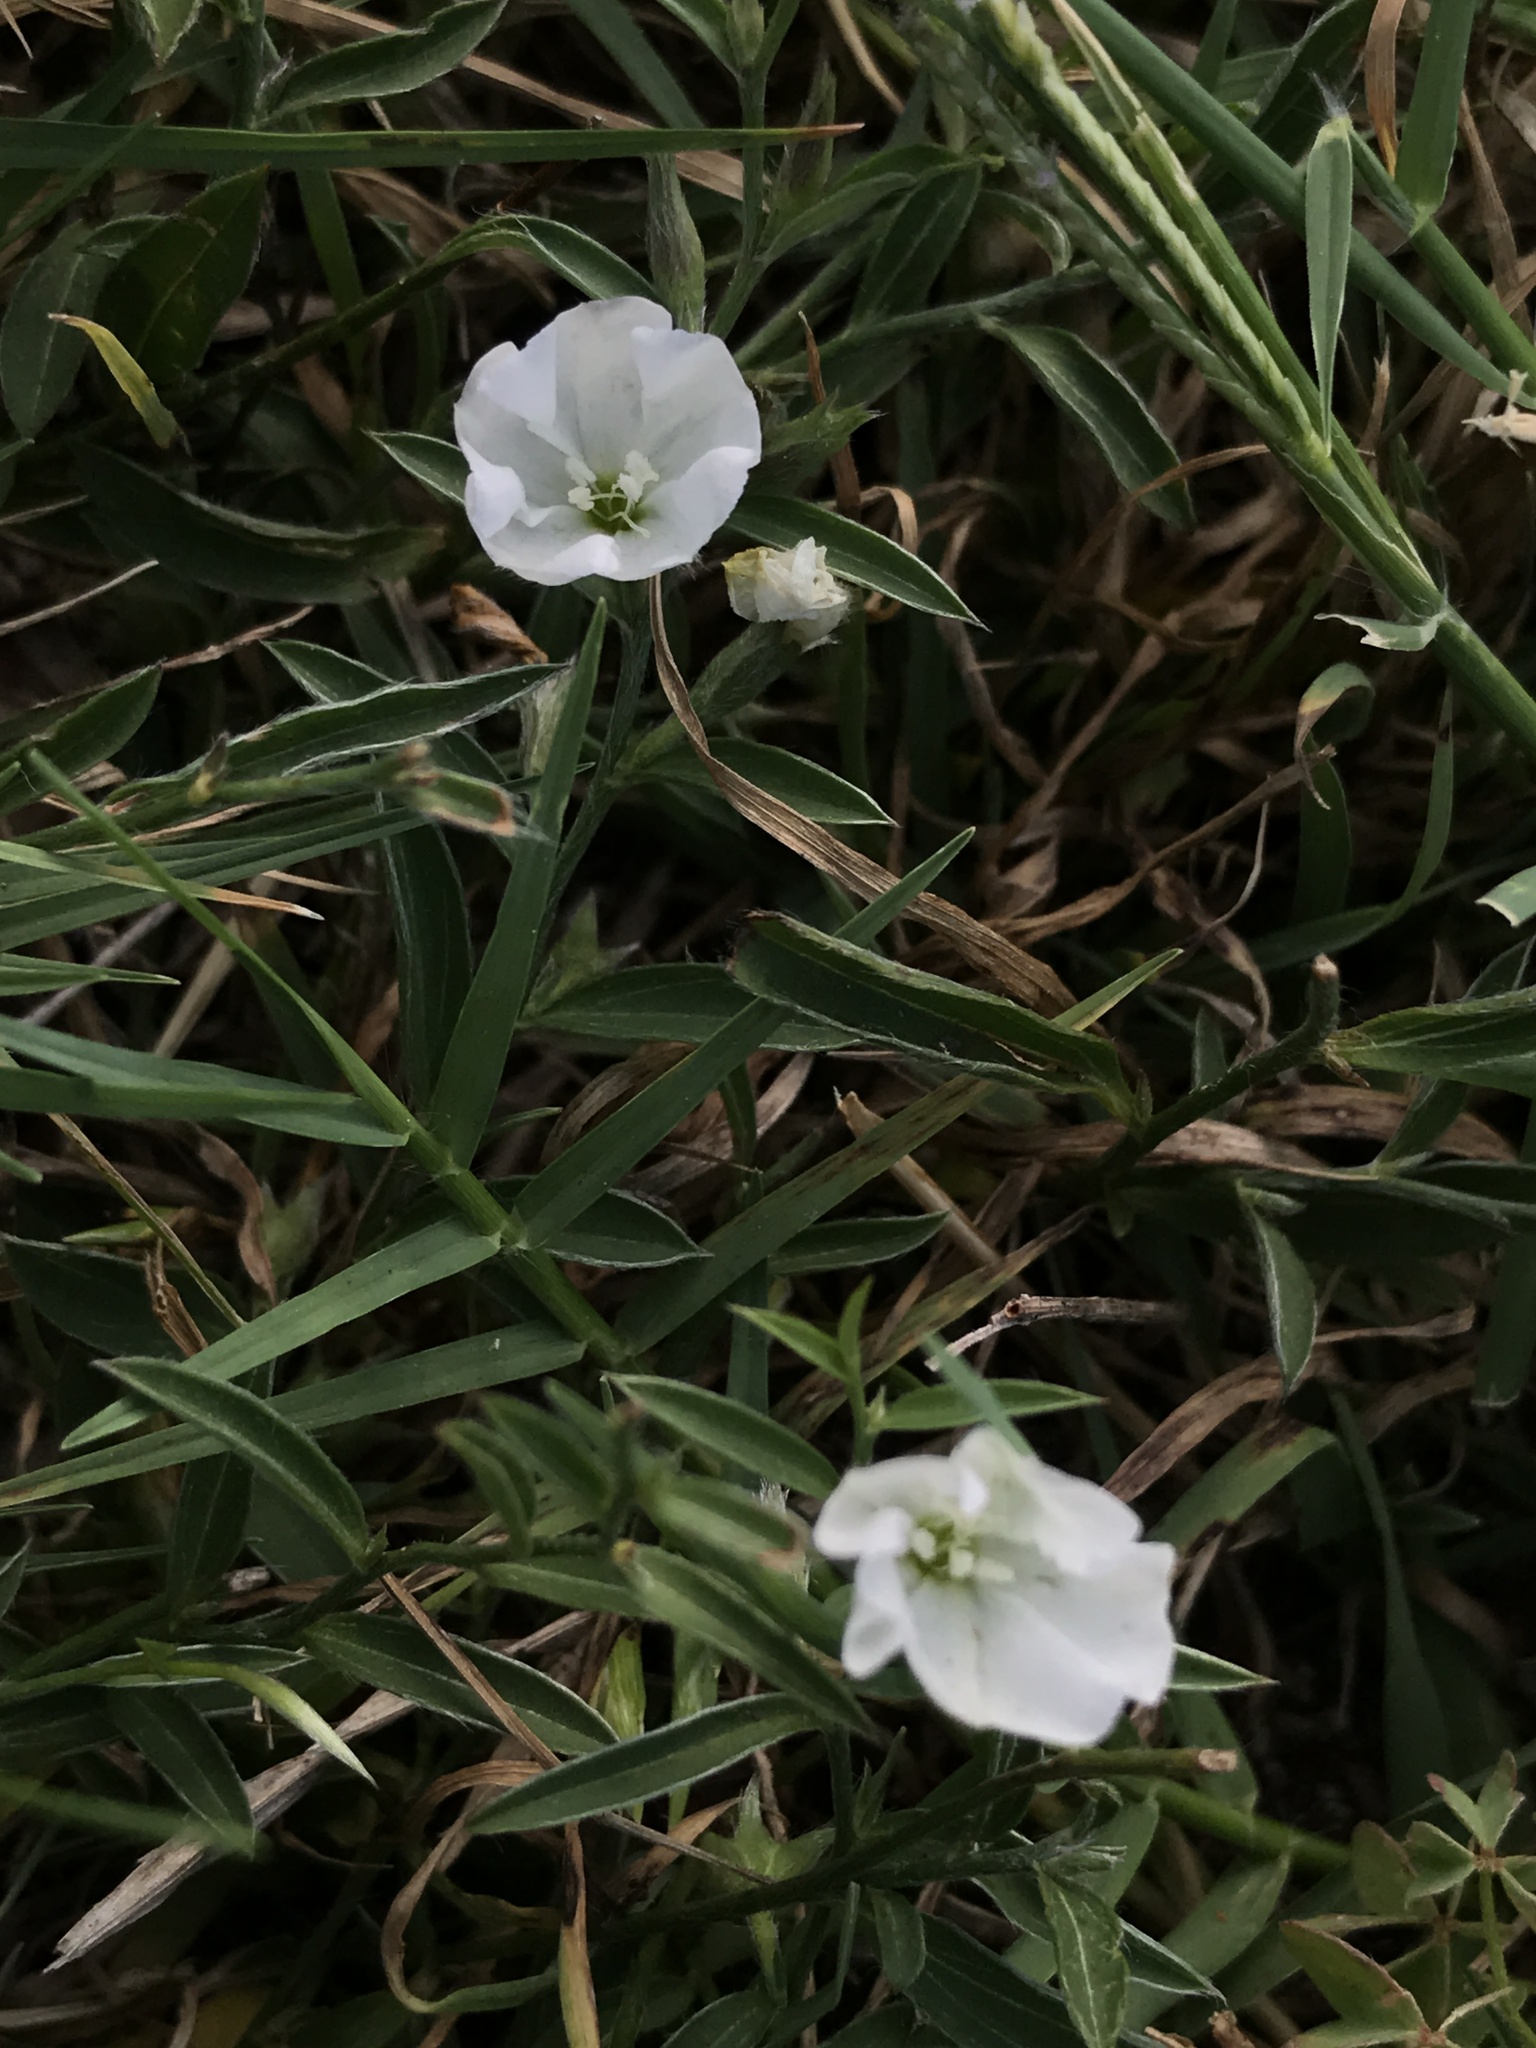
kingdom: Plantae
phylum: Tracheophyta
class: Magnoliopsida
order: Solanales
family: Convolvulaceae
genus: Evolvulus
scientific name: Evolvulus sericeus
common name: Blue dots
